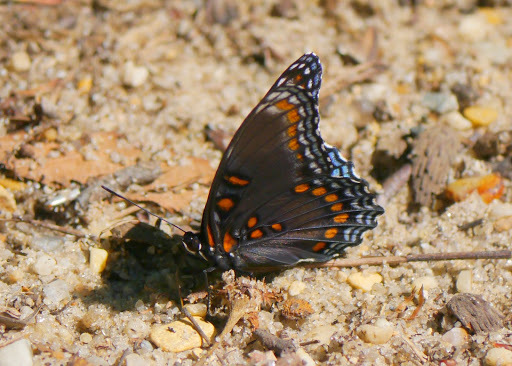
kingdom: Animalia
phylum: Arthropoda
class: Insecta
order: Lepidoptera
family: Nymphalidae
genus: Limenitis
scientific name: Limenitis arthemis
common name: Red-spotted admiral
